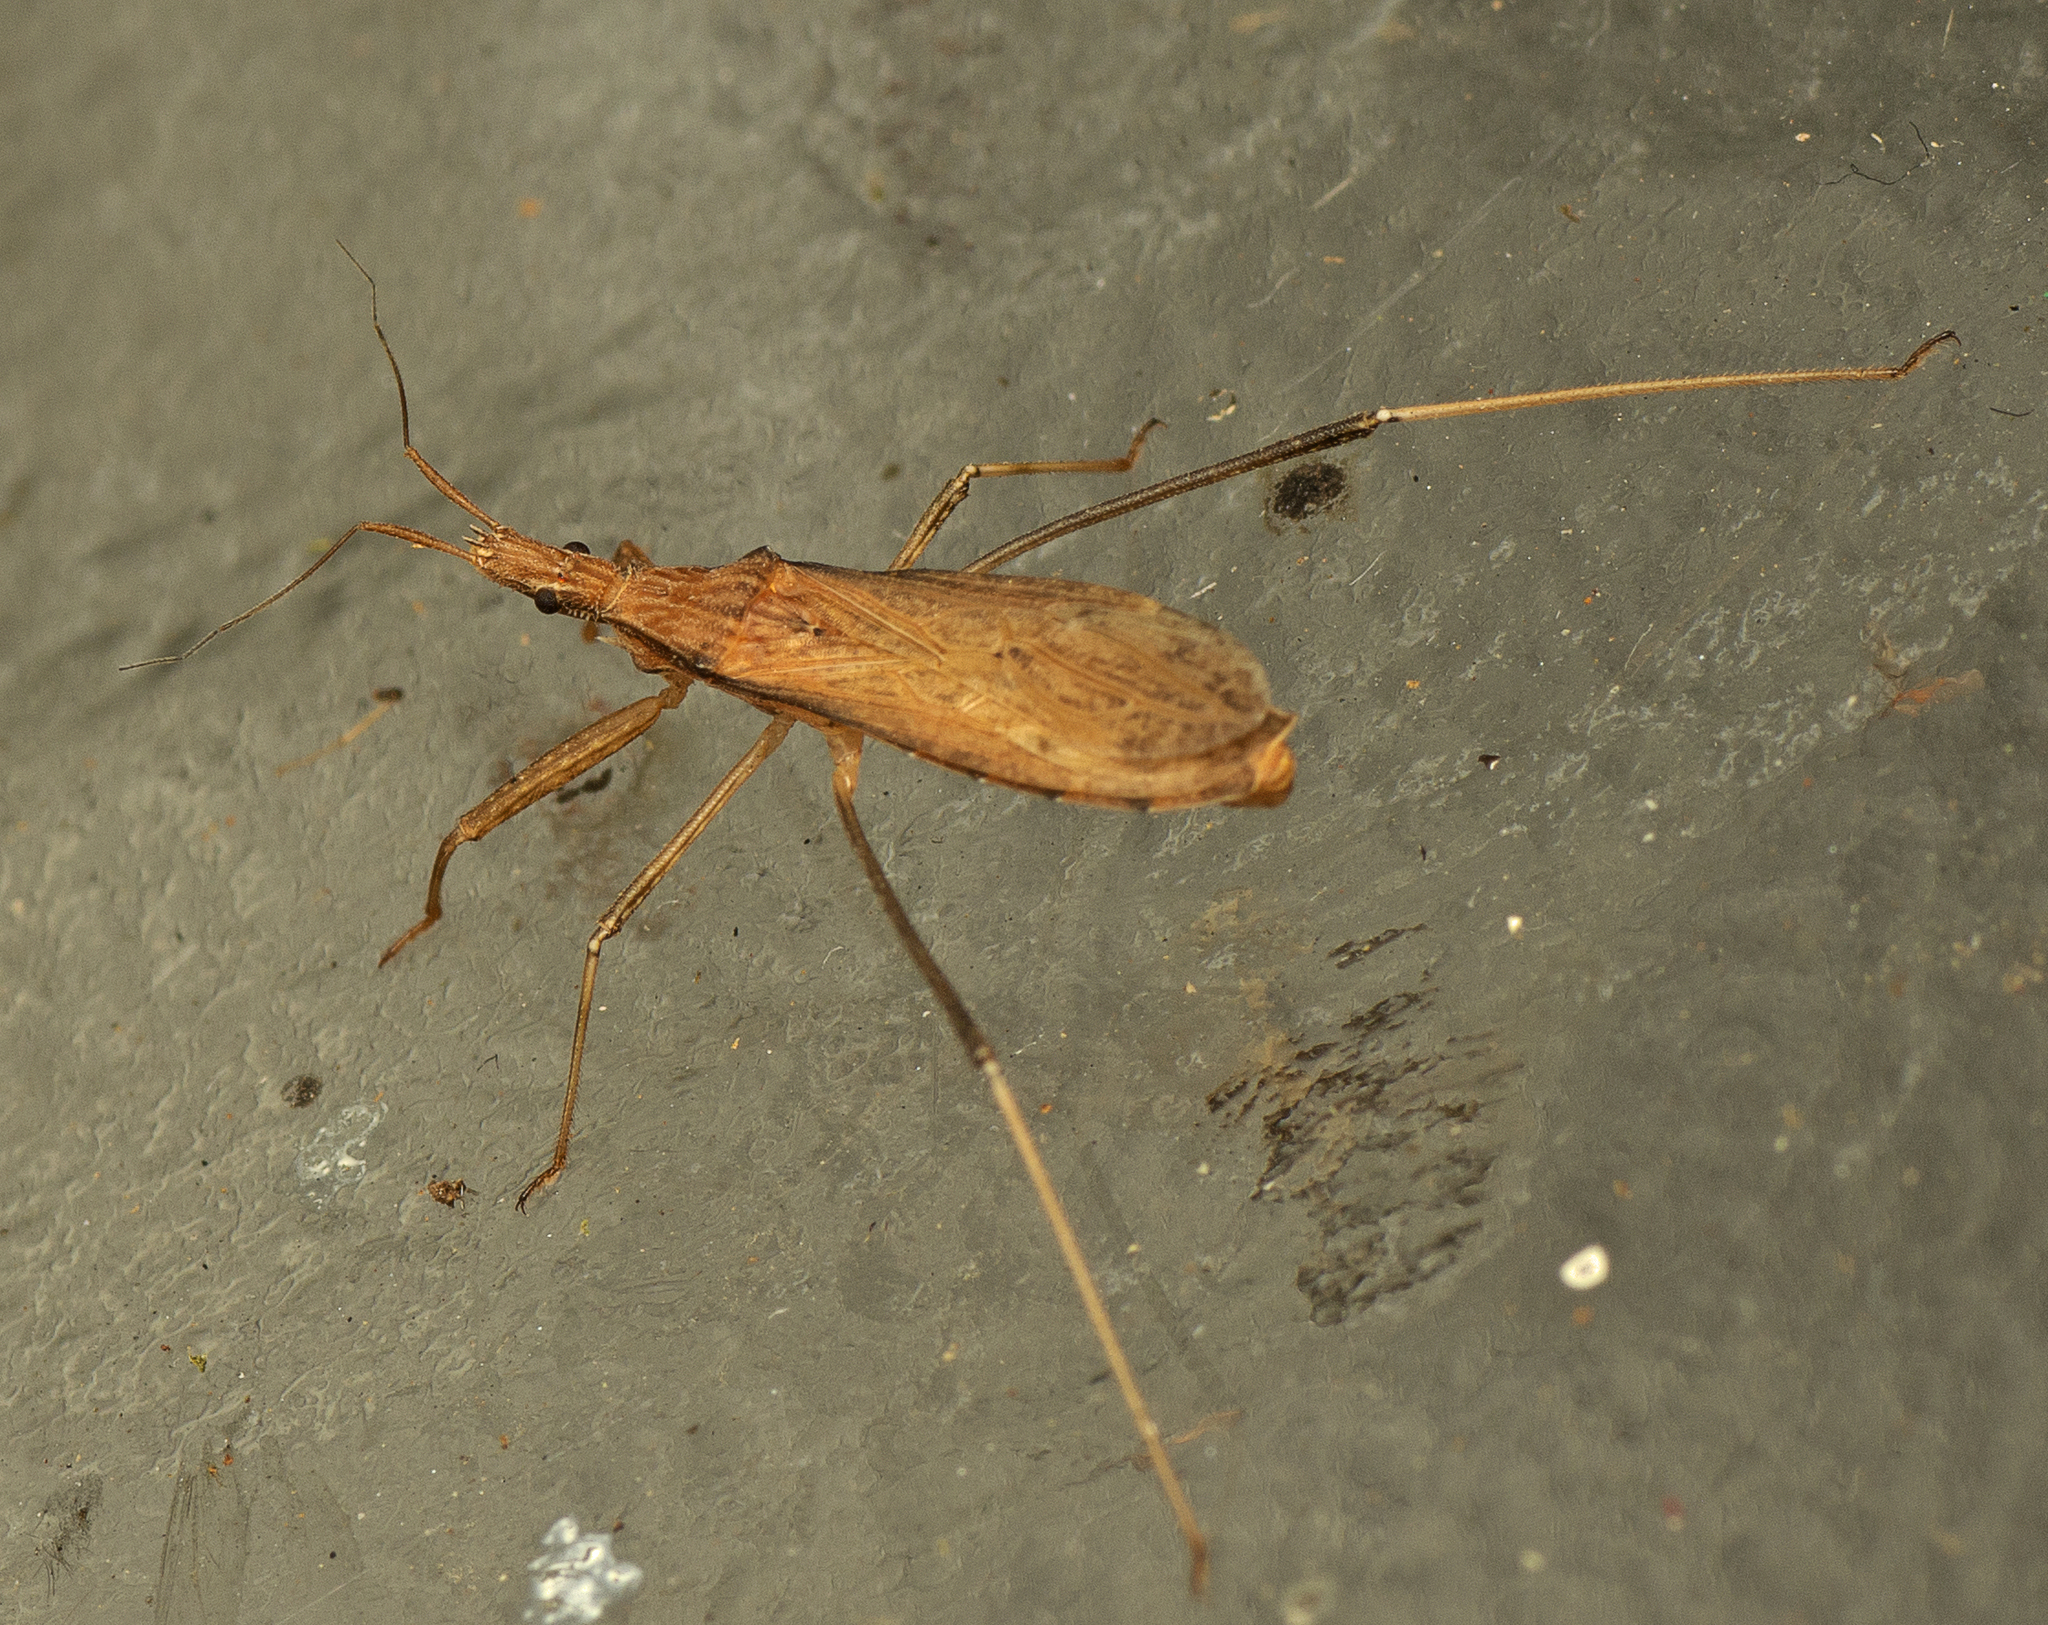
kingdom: Animalia
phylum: Arthropoda
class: Insecta
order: Hemiptera
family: Reduviidae
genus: Sastrapada
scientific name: Sastrapada australica
